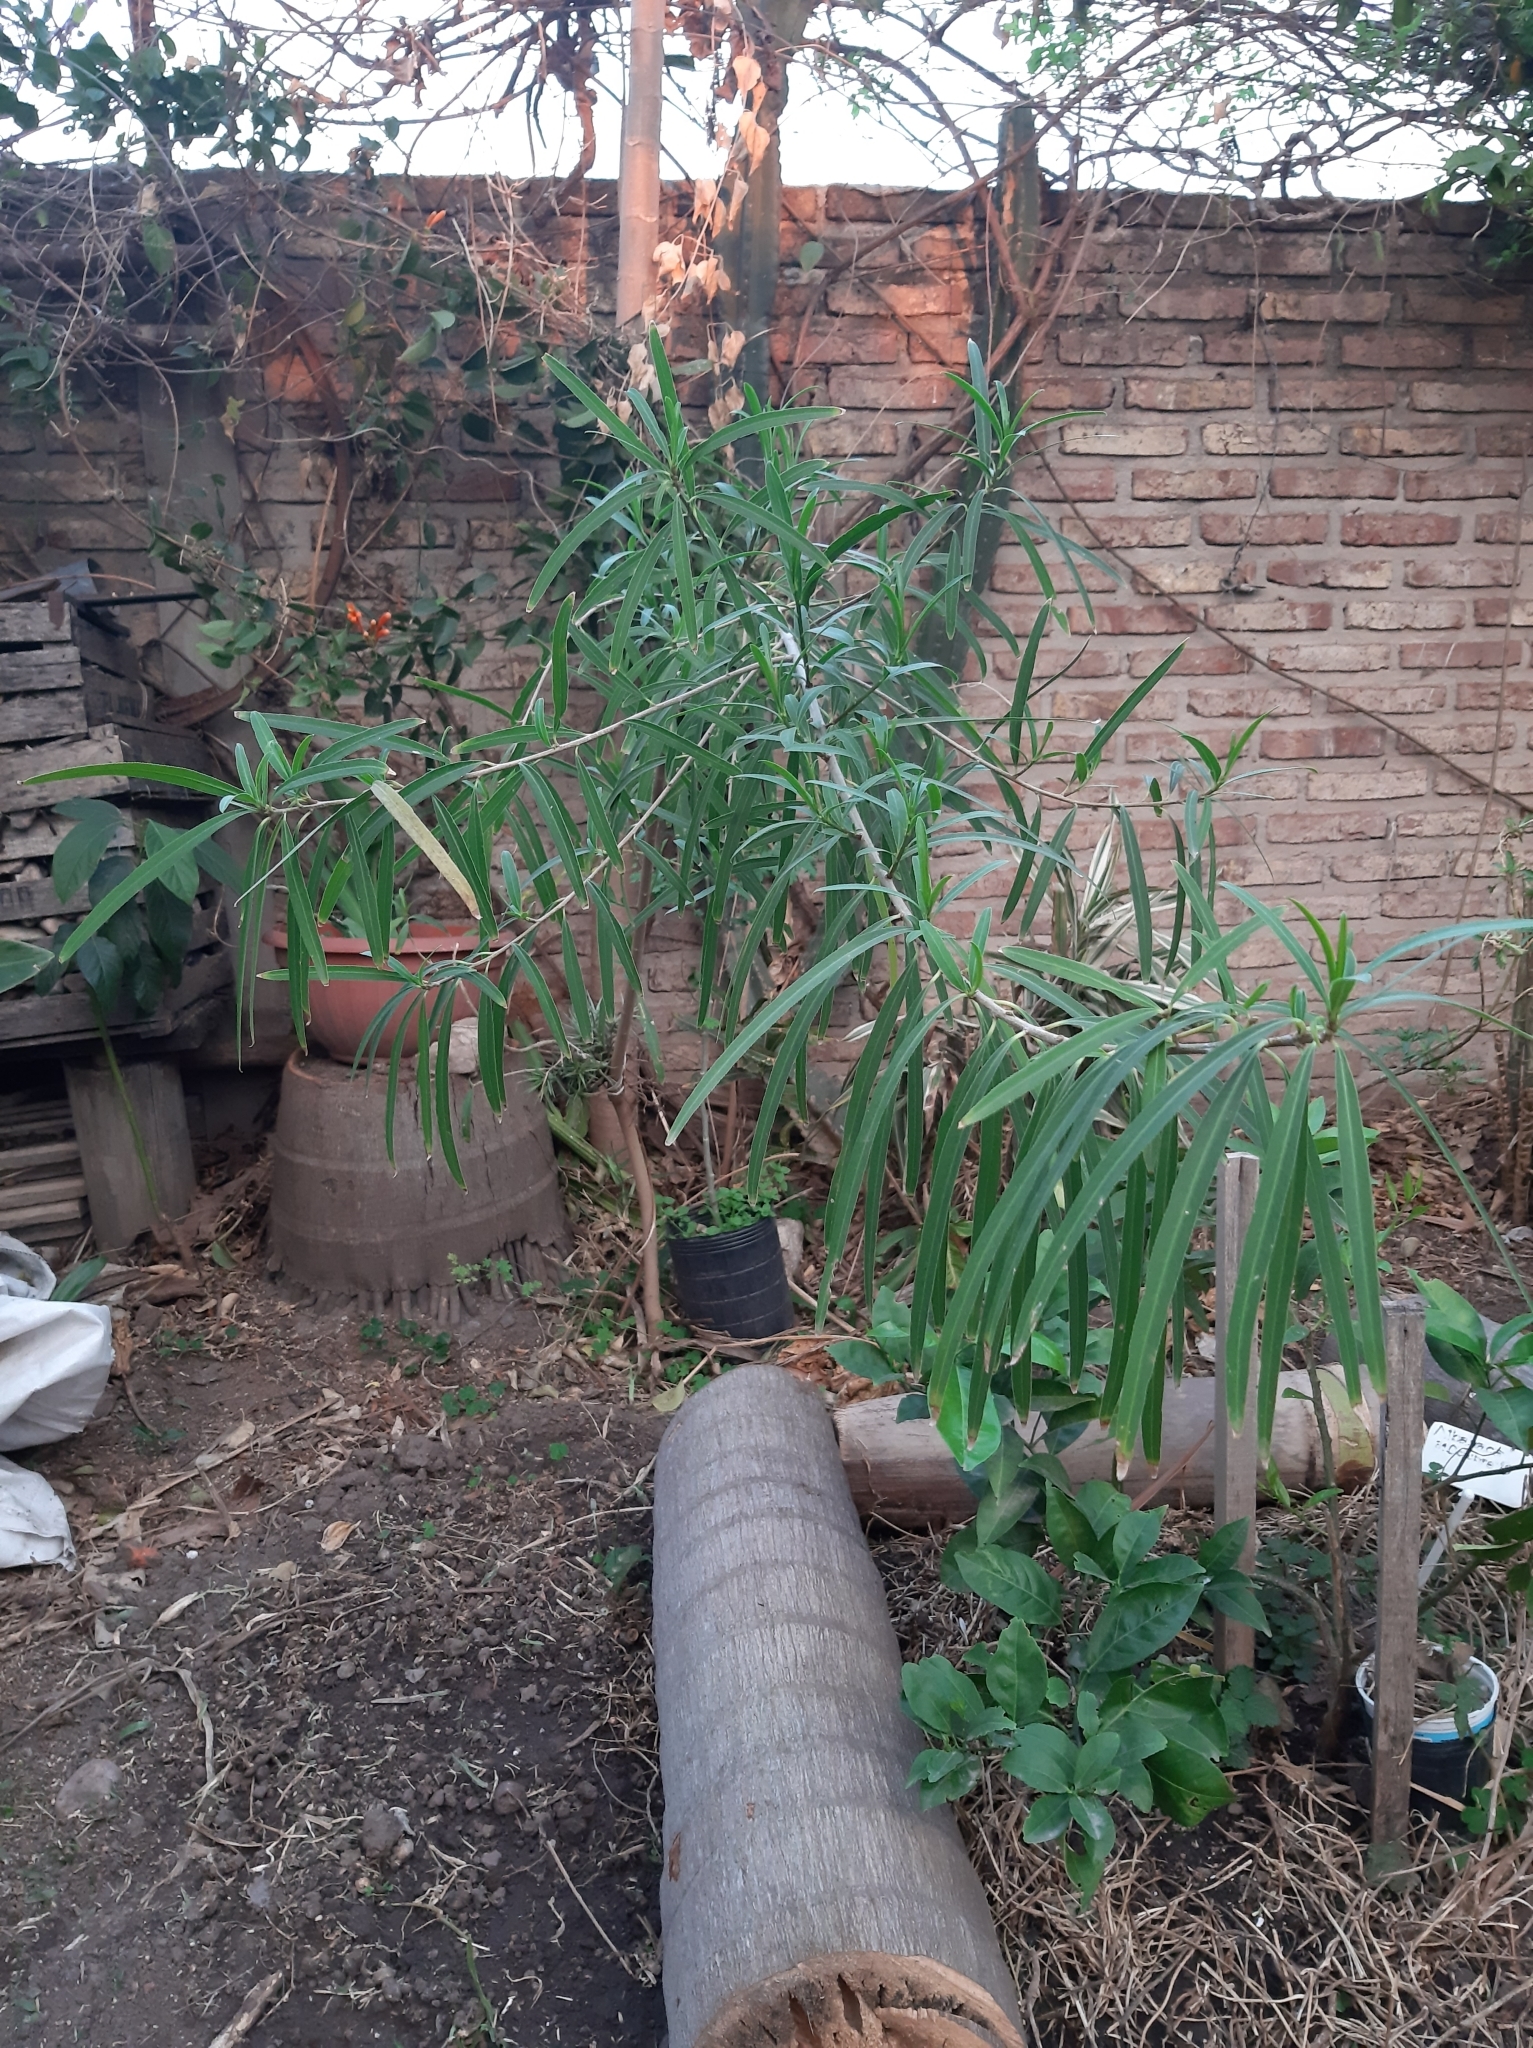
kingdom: Plantae
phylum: Tracheophyta
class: Magnoliopsida
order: Malpighiales
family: Euphorbiaceae
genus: Sapium
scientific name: Sapium haematospermum
